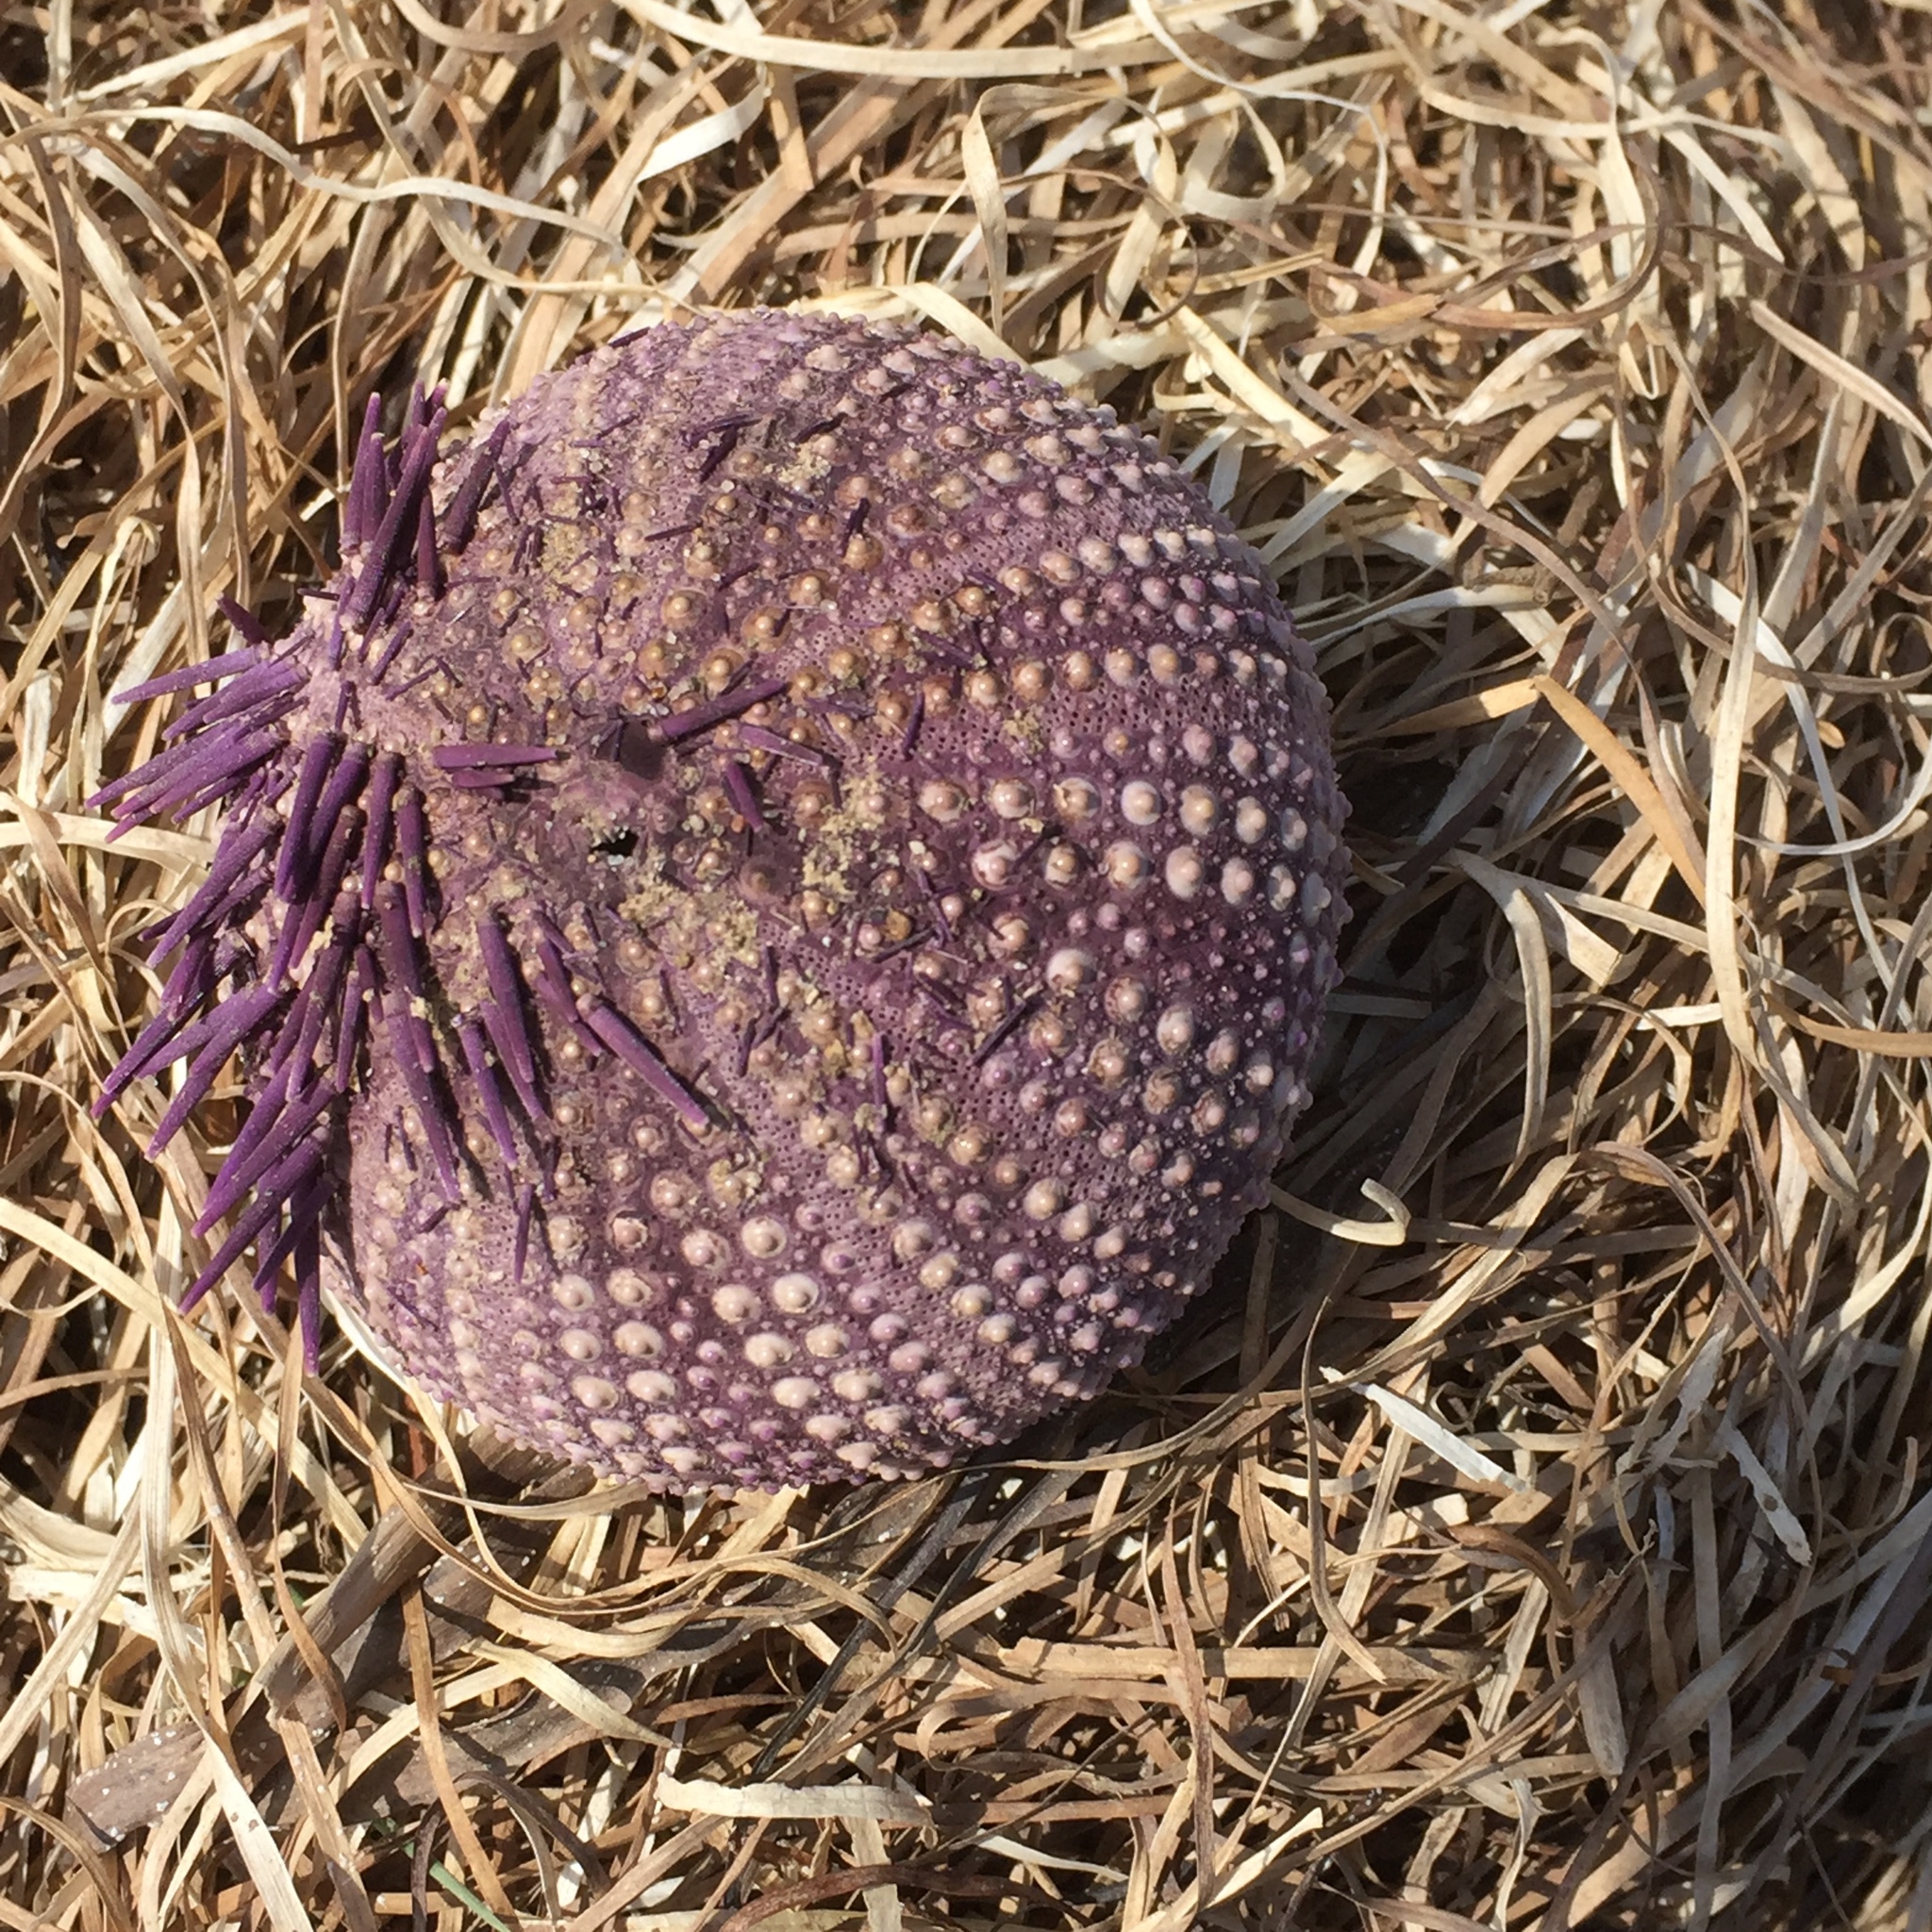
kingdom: Animalia
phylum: Echinodermata
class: Echinoidea
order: Camarodonta
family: Toxopneustidae
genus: Sphaerechinus
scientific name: Sphaerechinus granularis
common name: Violet sea urchin
